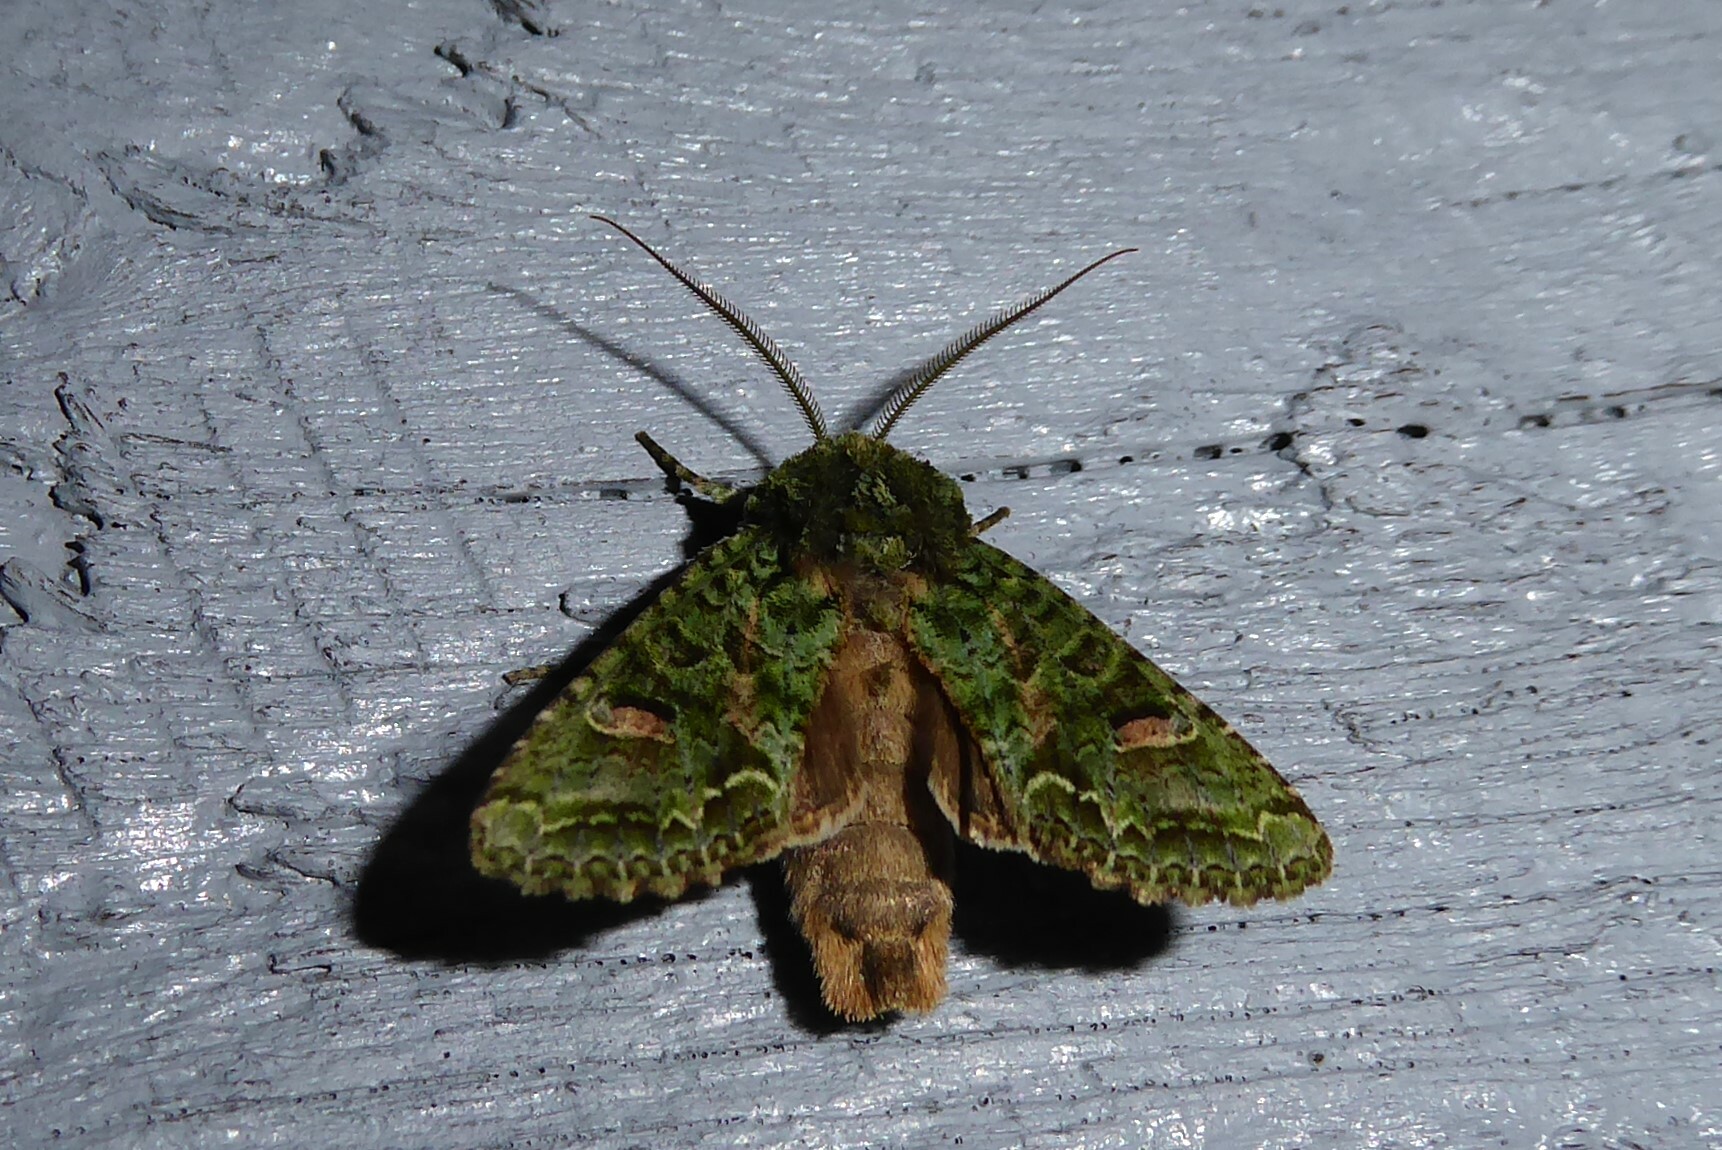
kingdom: Animalia
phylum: Arthropoda
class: Insecta
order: Lepidoptera
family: Noctuidae
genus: Ichneutica
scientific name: Ichneutica
